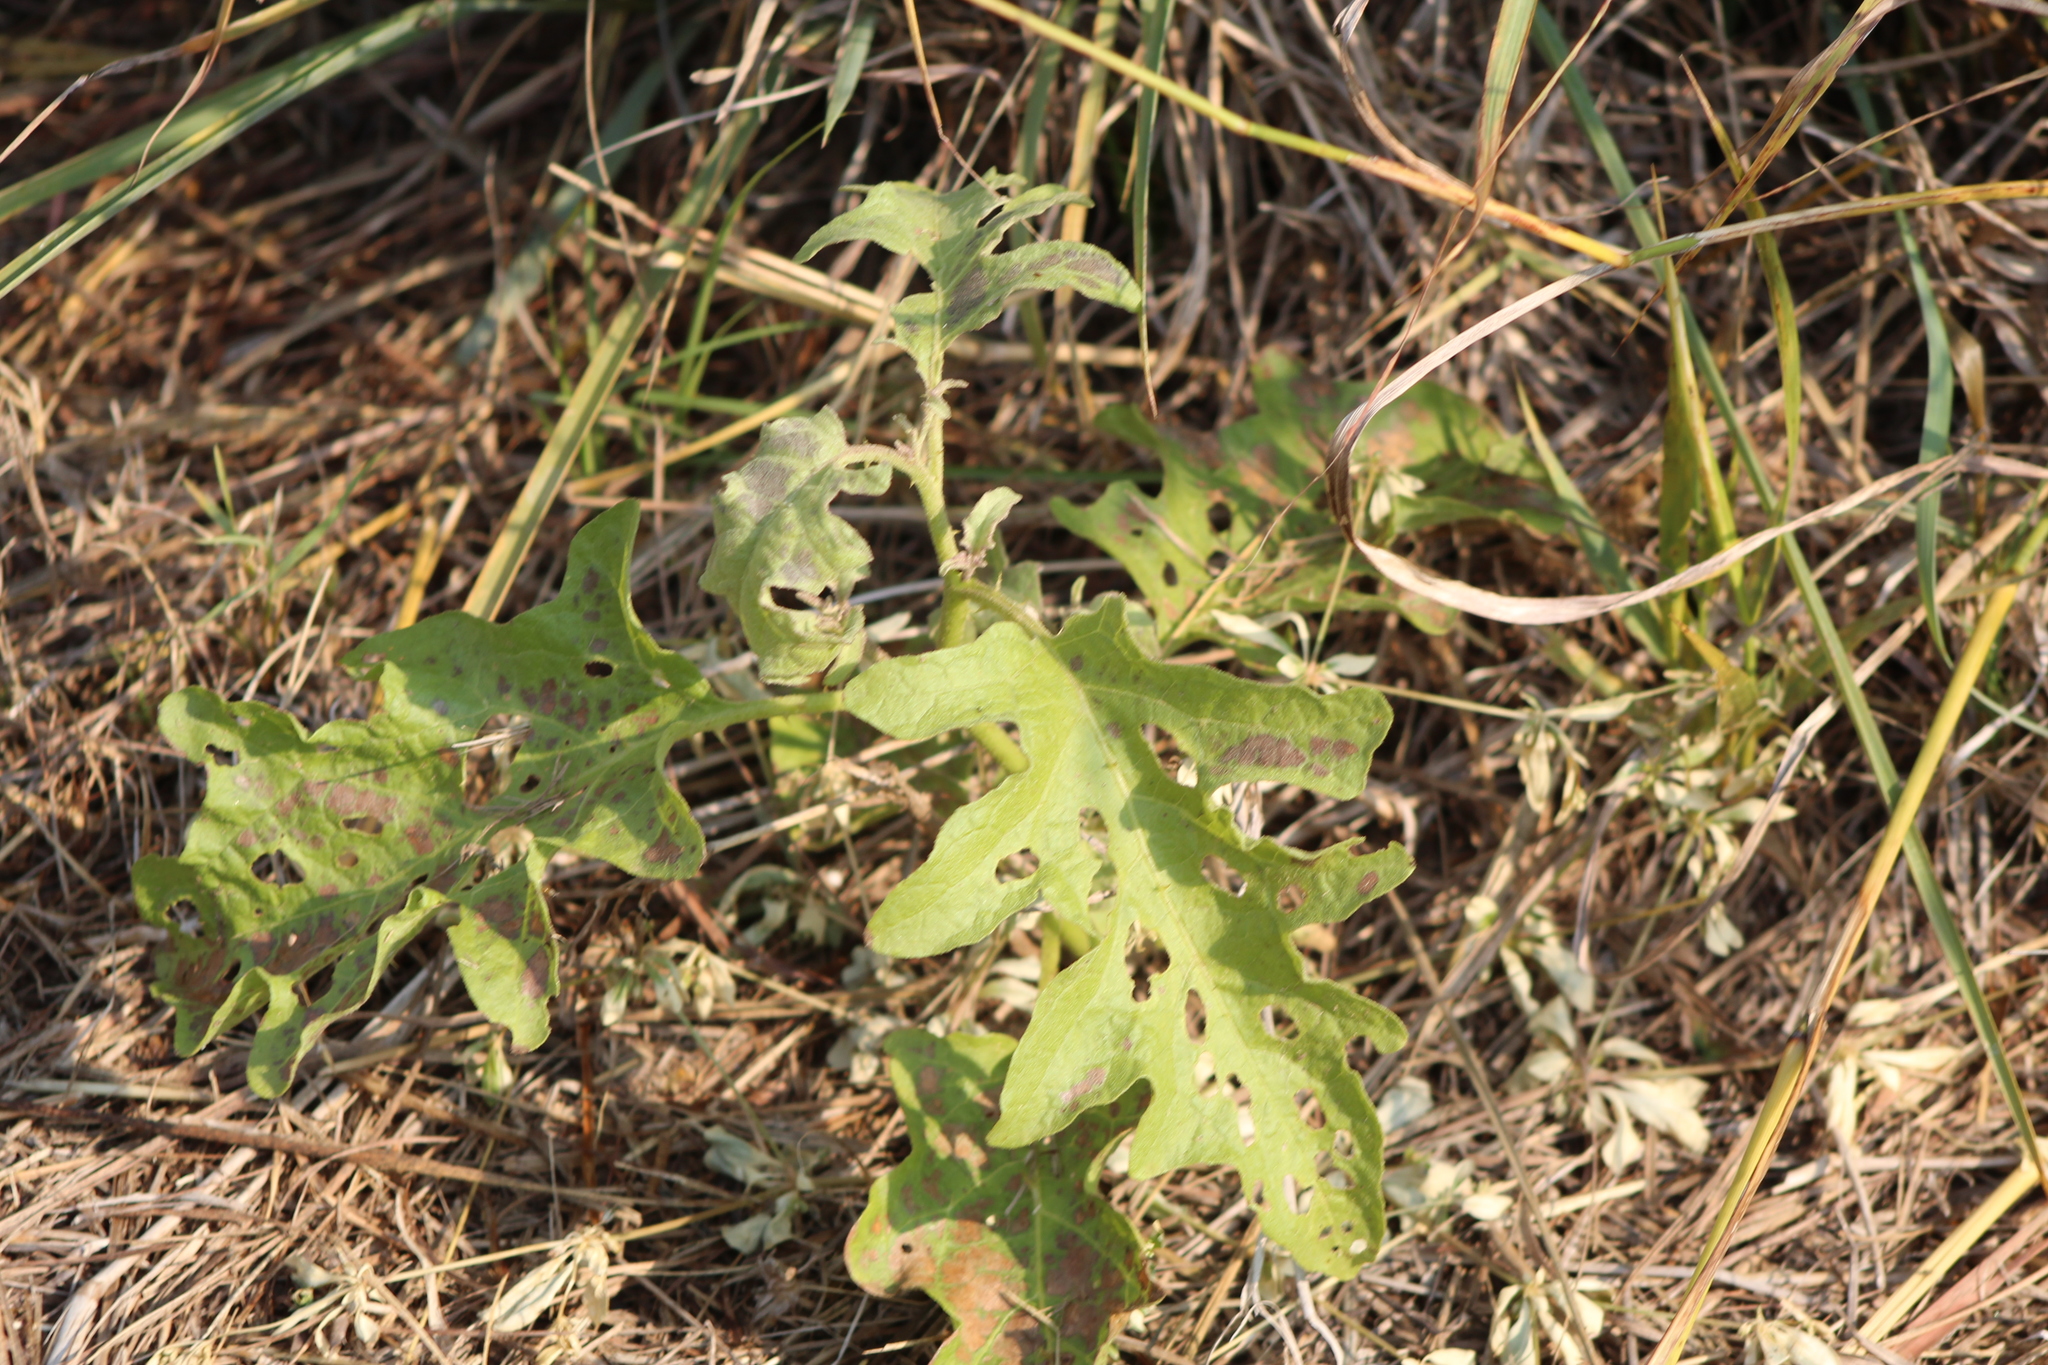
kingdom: Plantae
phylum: Tracheophyta
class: Magnoliopsida
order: Solanales
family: Solanaceae
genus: Solanum
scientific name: Solanum dimidiatum
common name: Carolina horse-nettle
